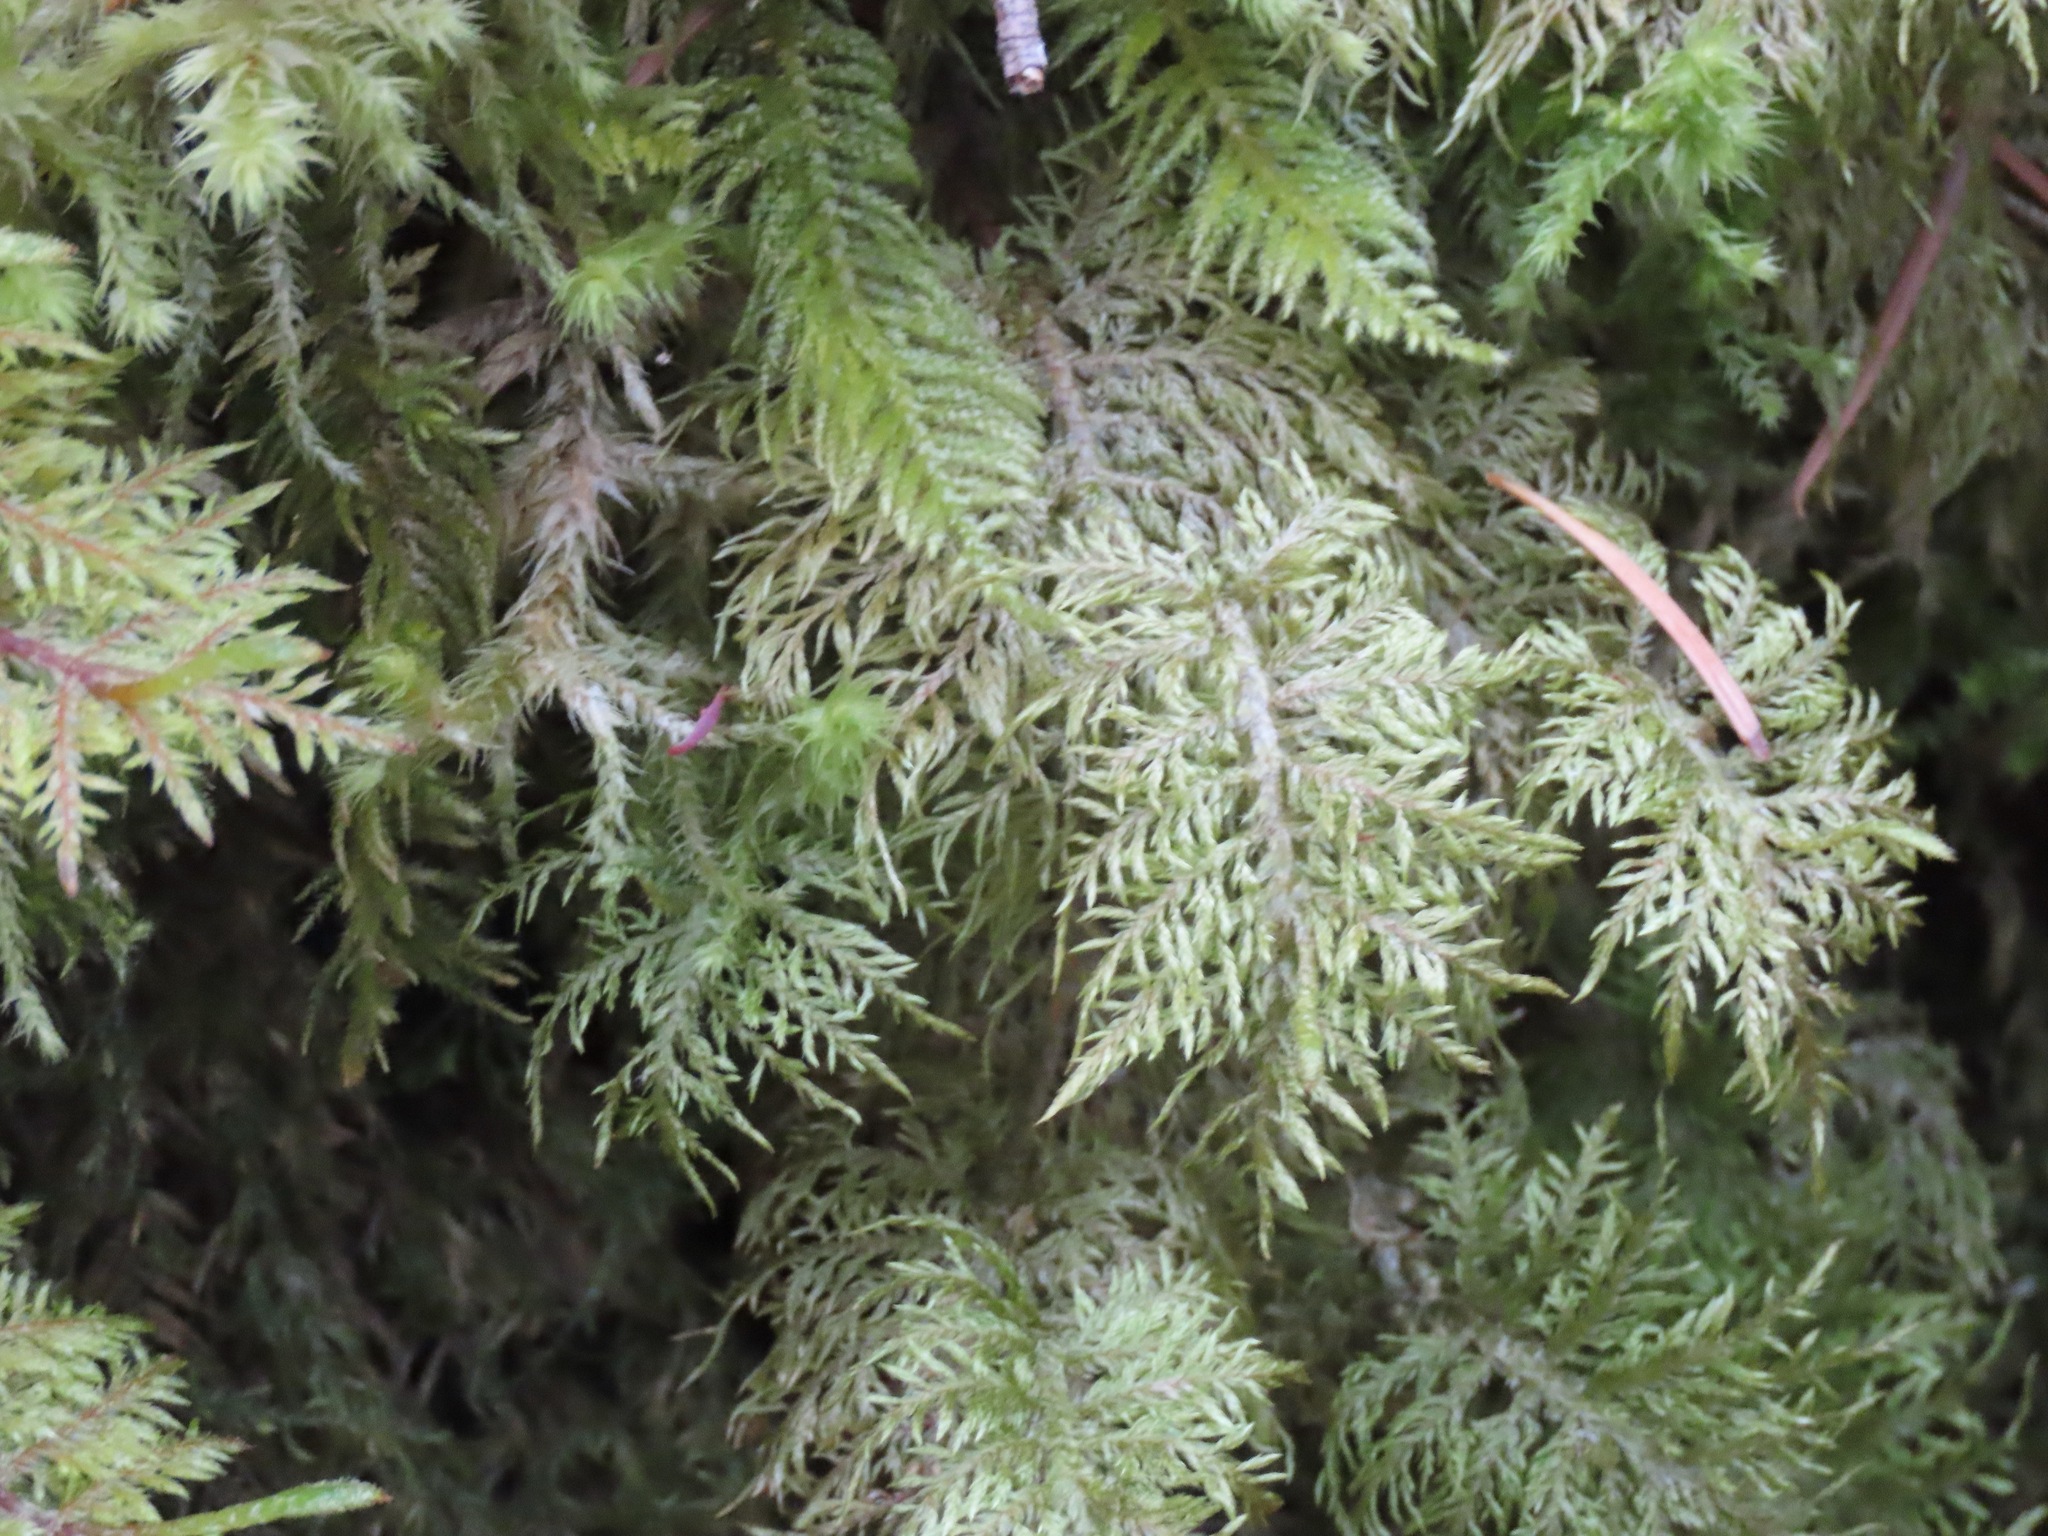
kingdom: Plantae
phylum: Bryophyta
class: Bryopsida
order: Hypnales
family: Hylocomiaceae
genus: Hylocomium
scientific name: Hylocomium splendens
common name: Stairstep moss
